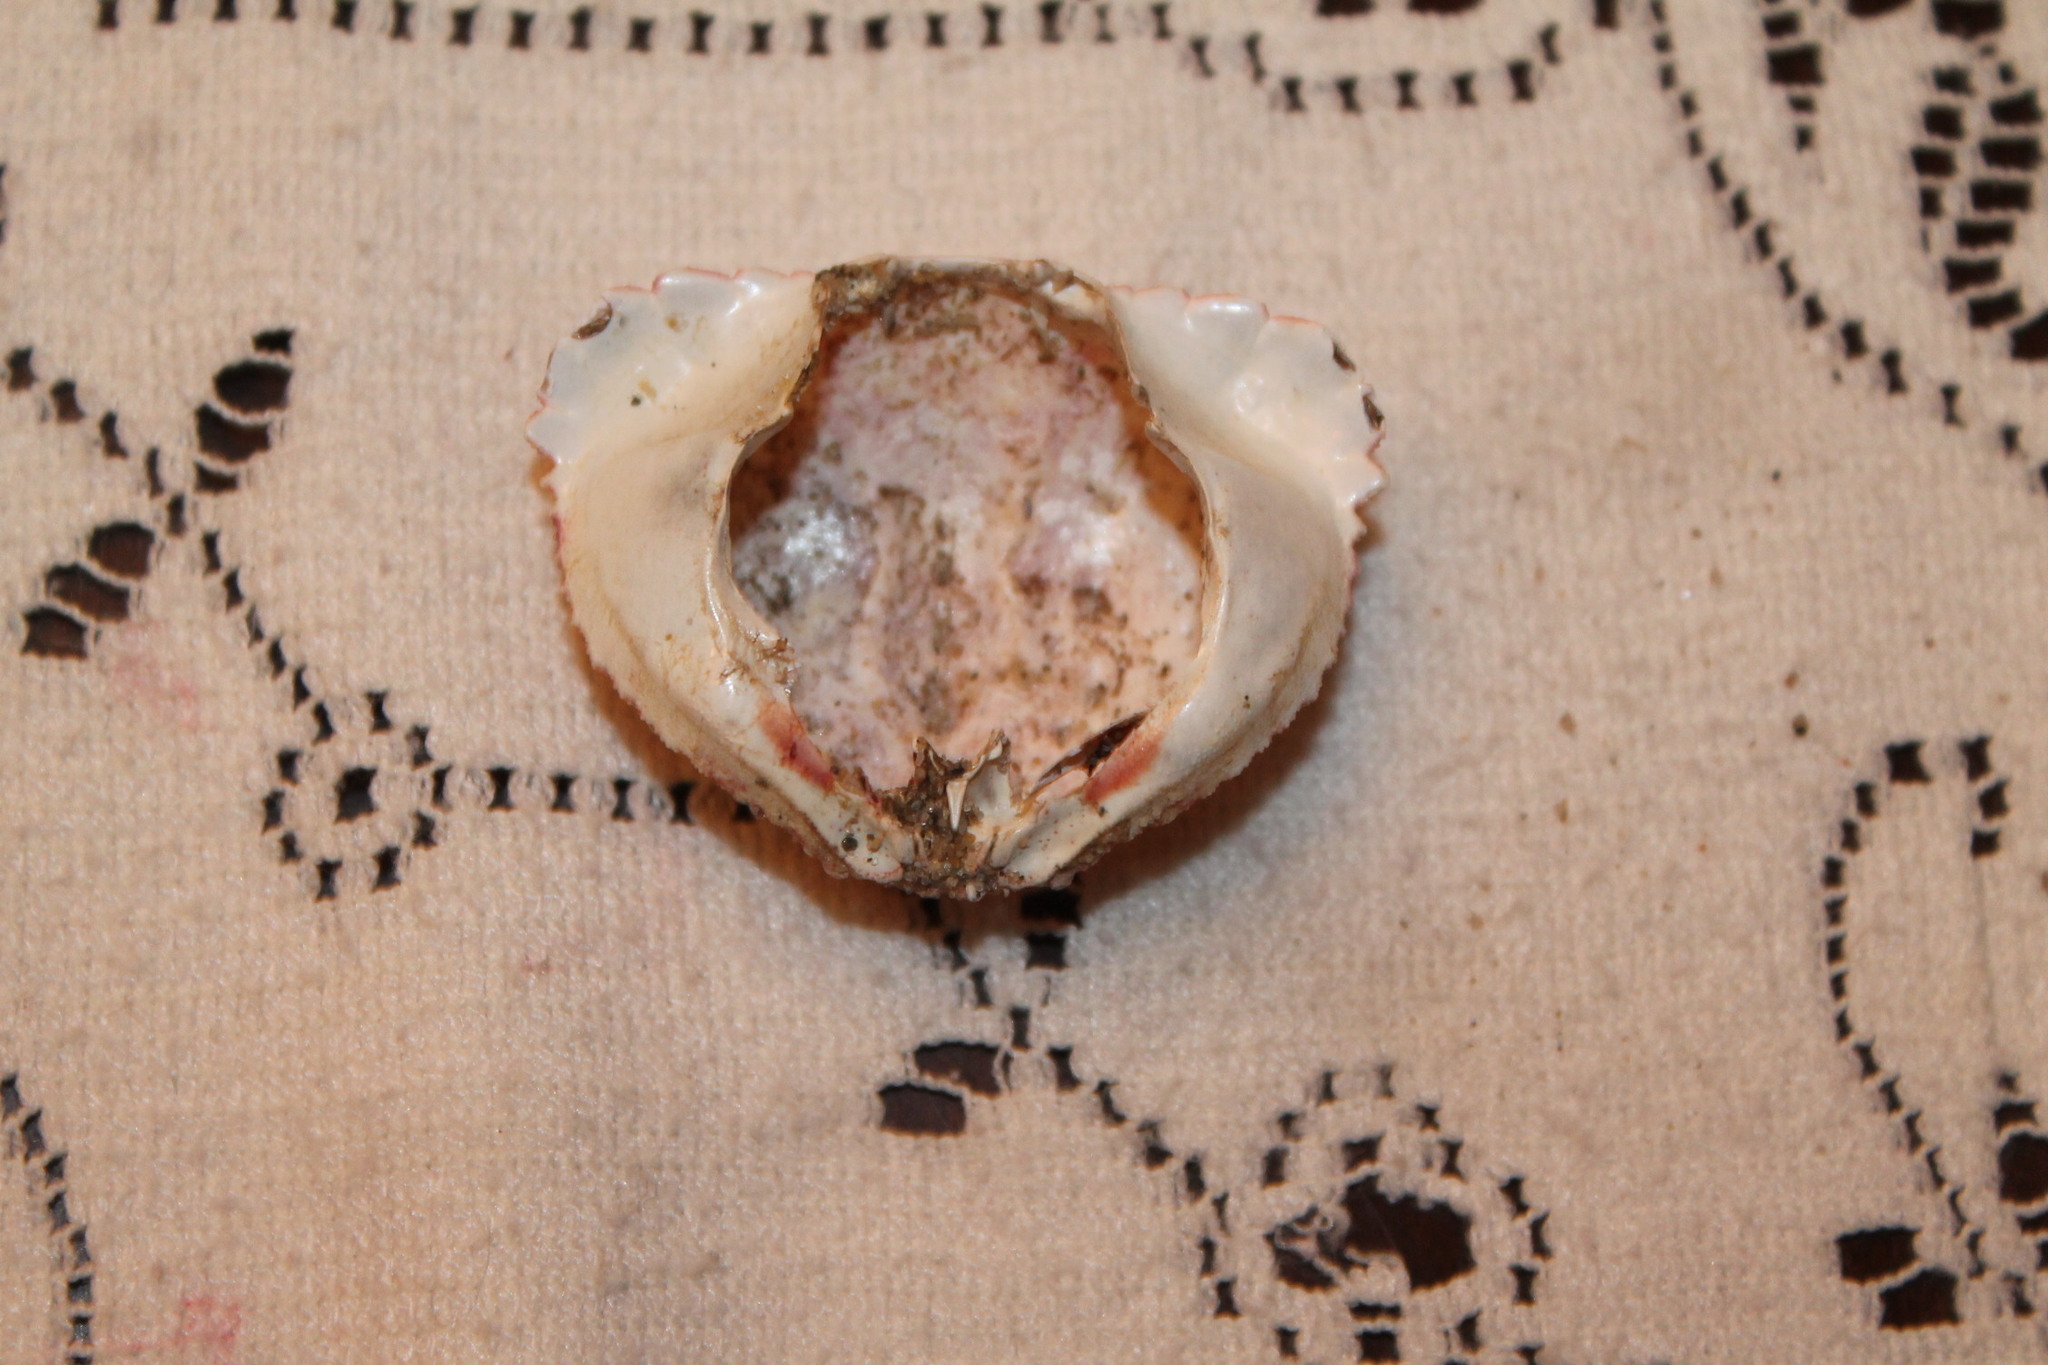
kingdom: Animalia
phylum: Arthropoda
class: Malacostraca
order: Decapoda
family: Calappidae
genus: Calappa
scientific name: Calappa flammea
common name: Flamed box crab
